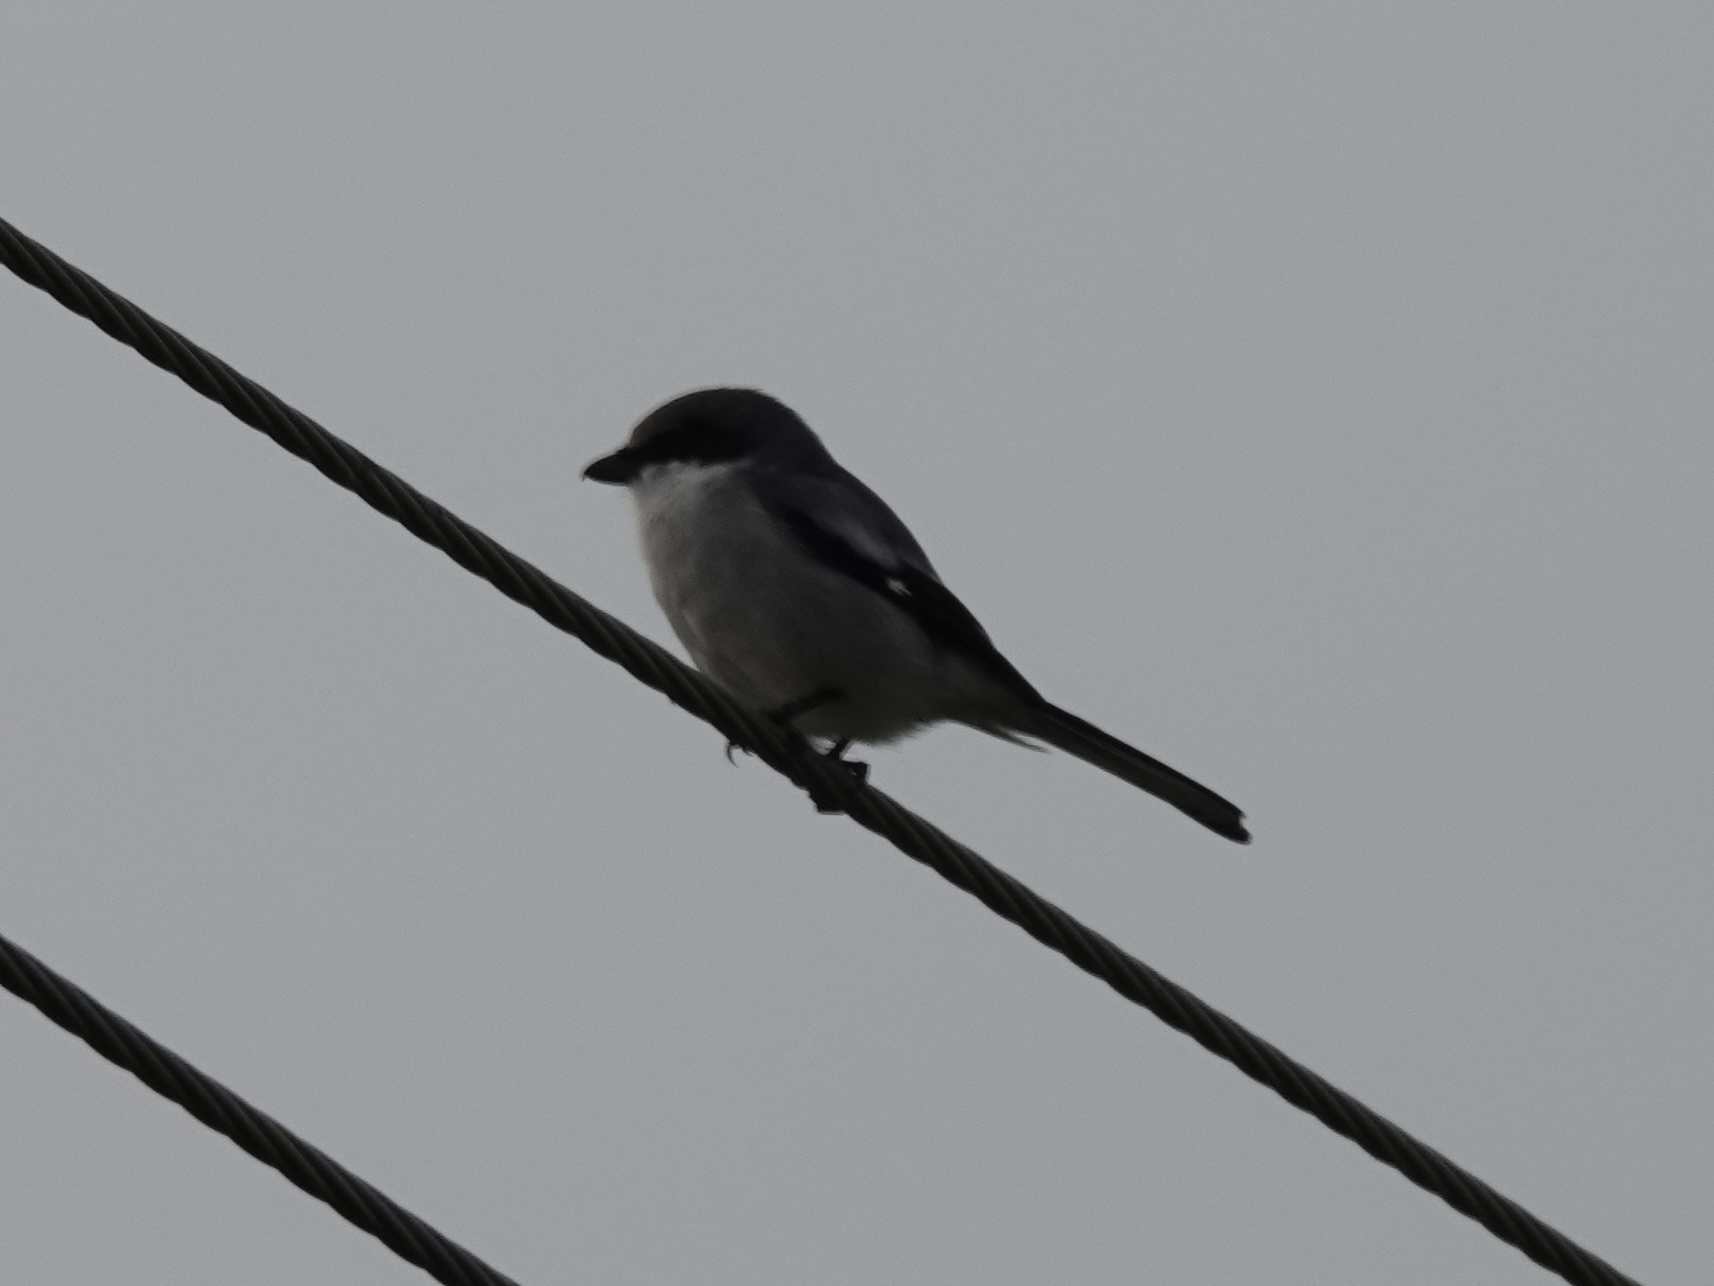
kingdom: Animalia
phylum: Chordata
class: Aves
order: Passeriformes
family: Laniidae
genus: Lanius
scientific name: Lanius ludovicianus
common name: Loggerhead shrike
